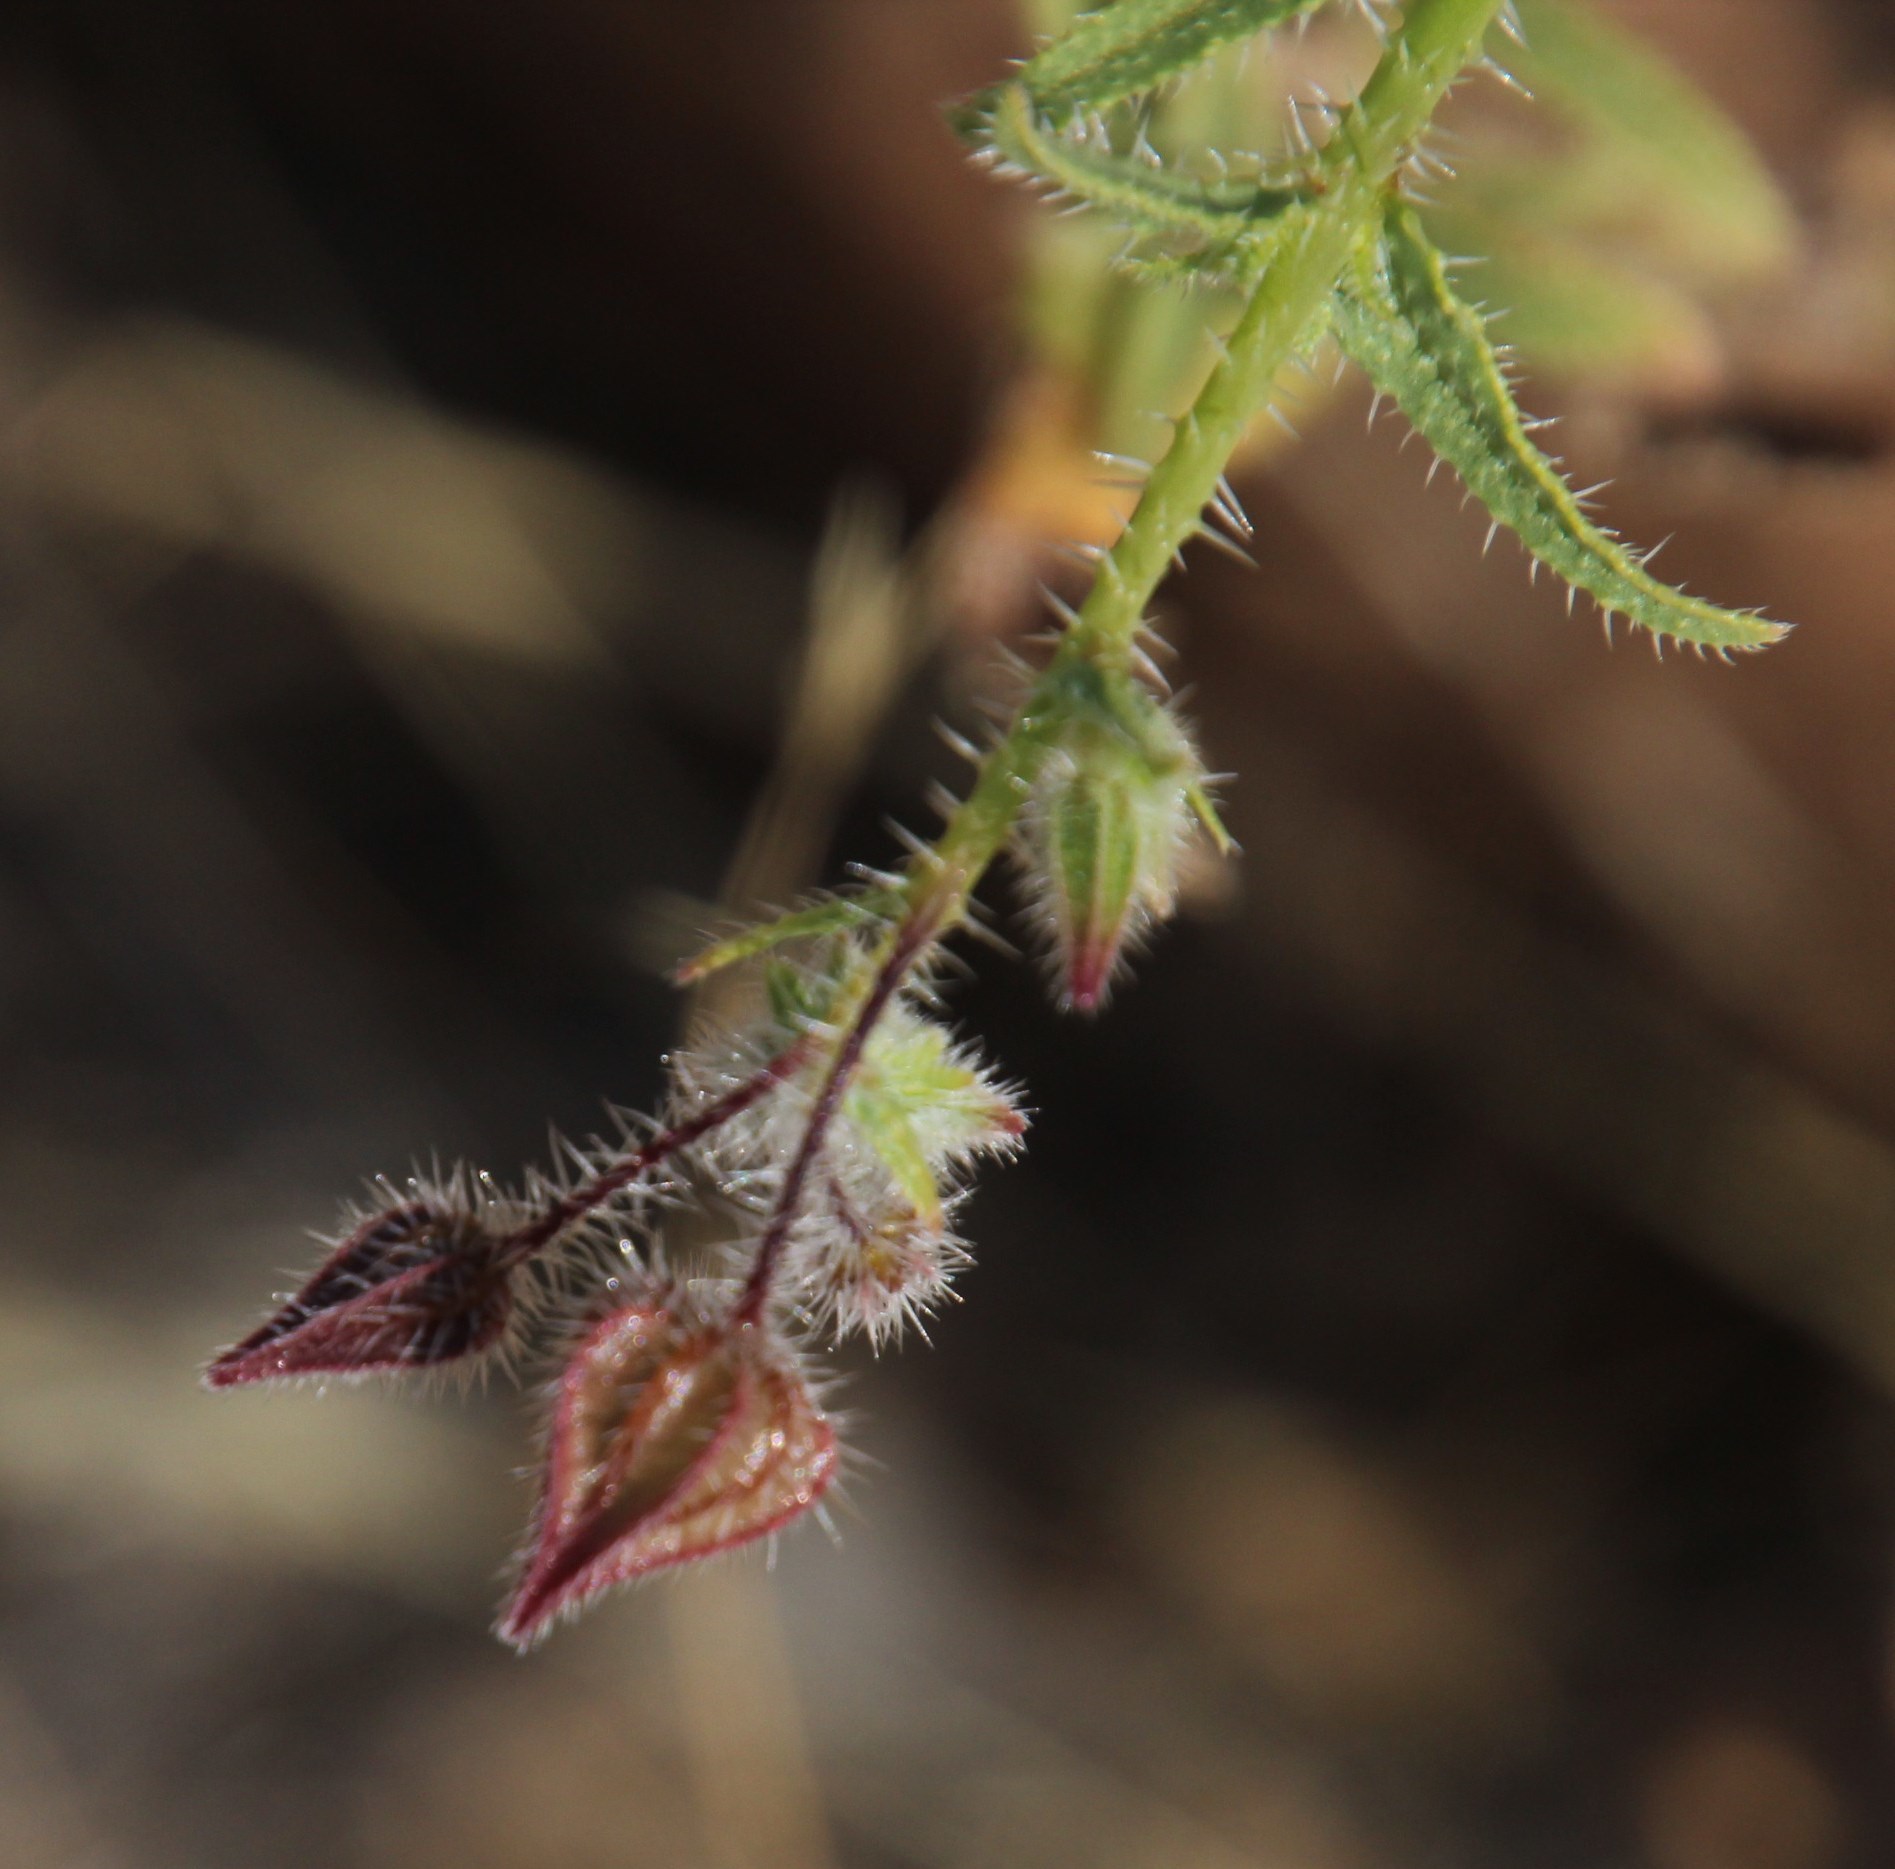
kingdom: Plantae
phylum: Tracheophyta
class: Magnoliopsida
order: Boraginales
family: Boraginaceae
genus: Trichodesma
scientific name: Trichodesma africanum
